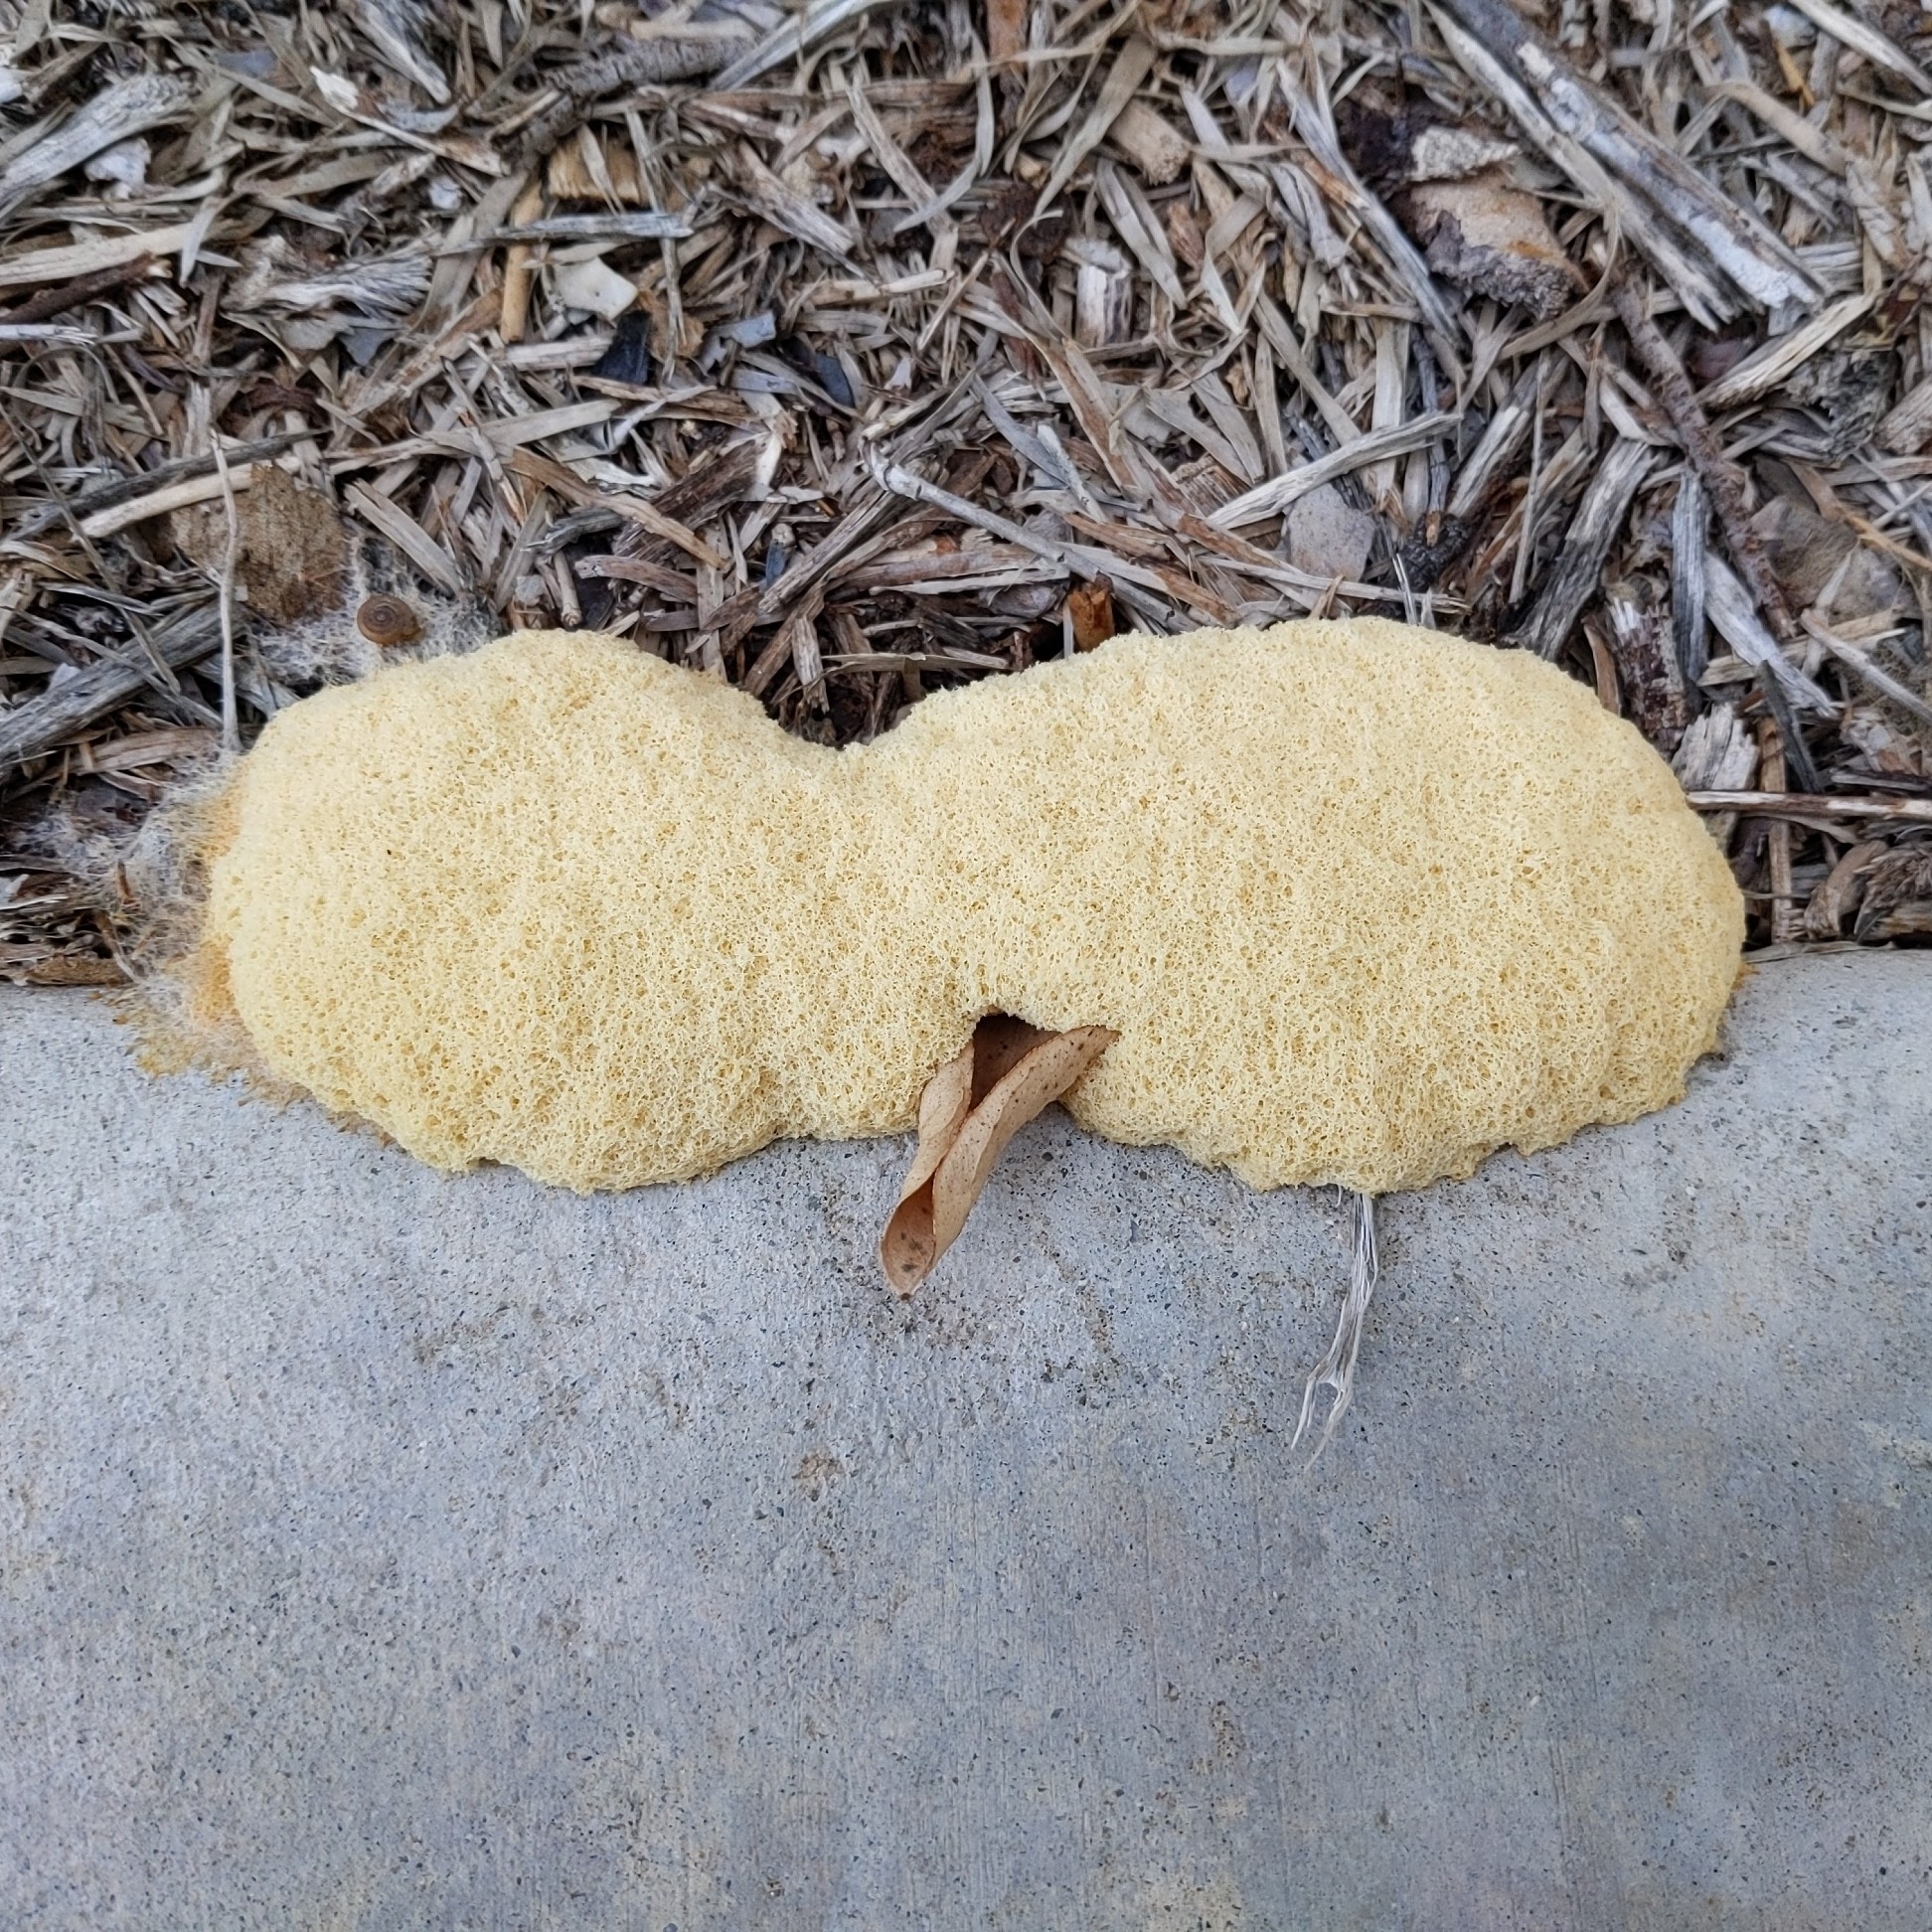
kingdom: Protozoa
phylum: Mycetozoa
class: Myxomycetes
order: Physarales
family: Physaraceae
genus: Fuligo
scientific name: Fuligo septica
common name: Dog vomit slime mold
